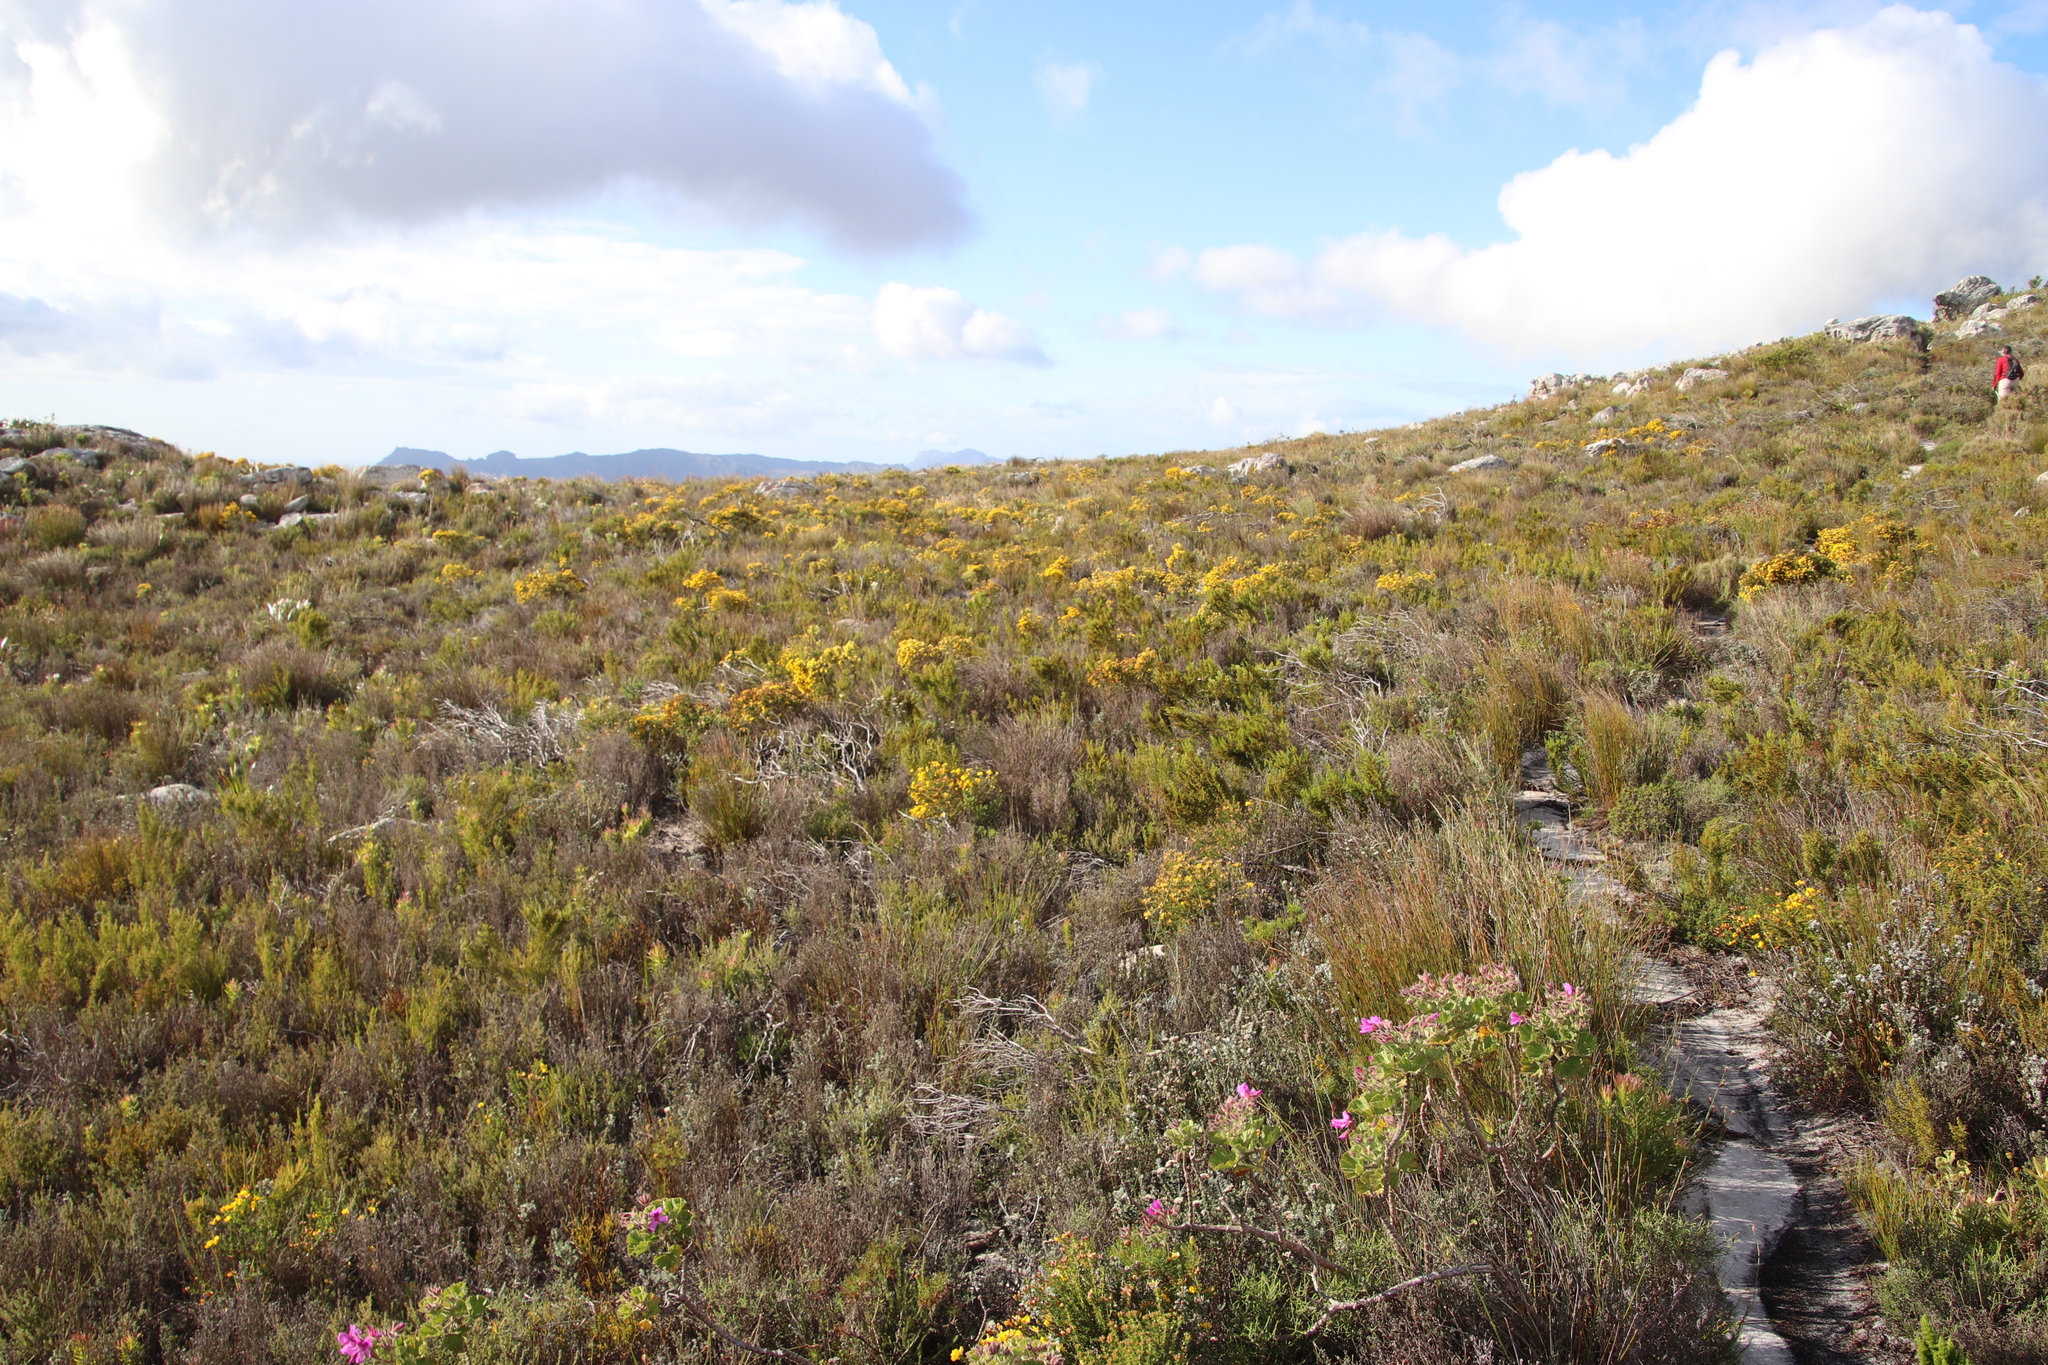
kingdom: Plantae
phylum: Tracheophyta
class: Magnoliopsida
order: Fabales
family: Fabaceae
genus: Aspalathus
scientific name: Aspalathus carnosa
